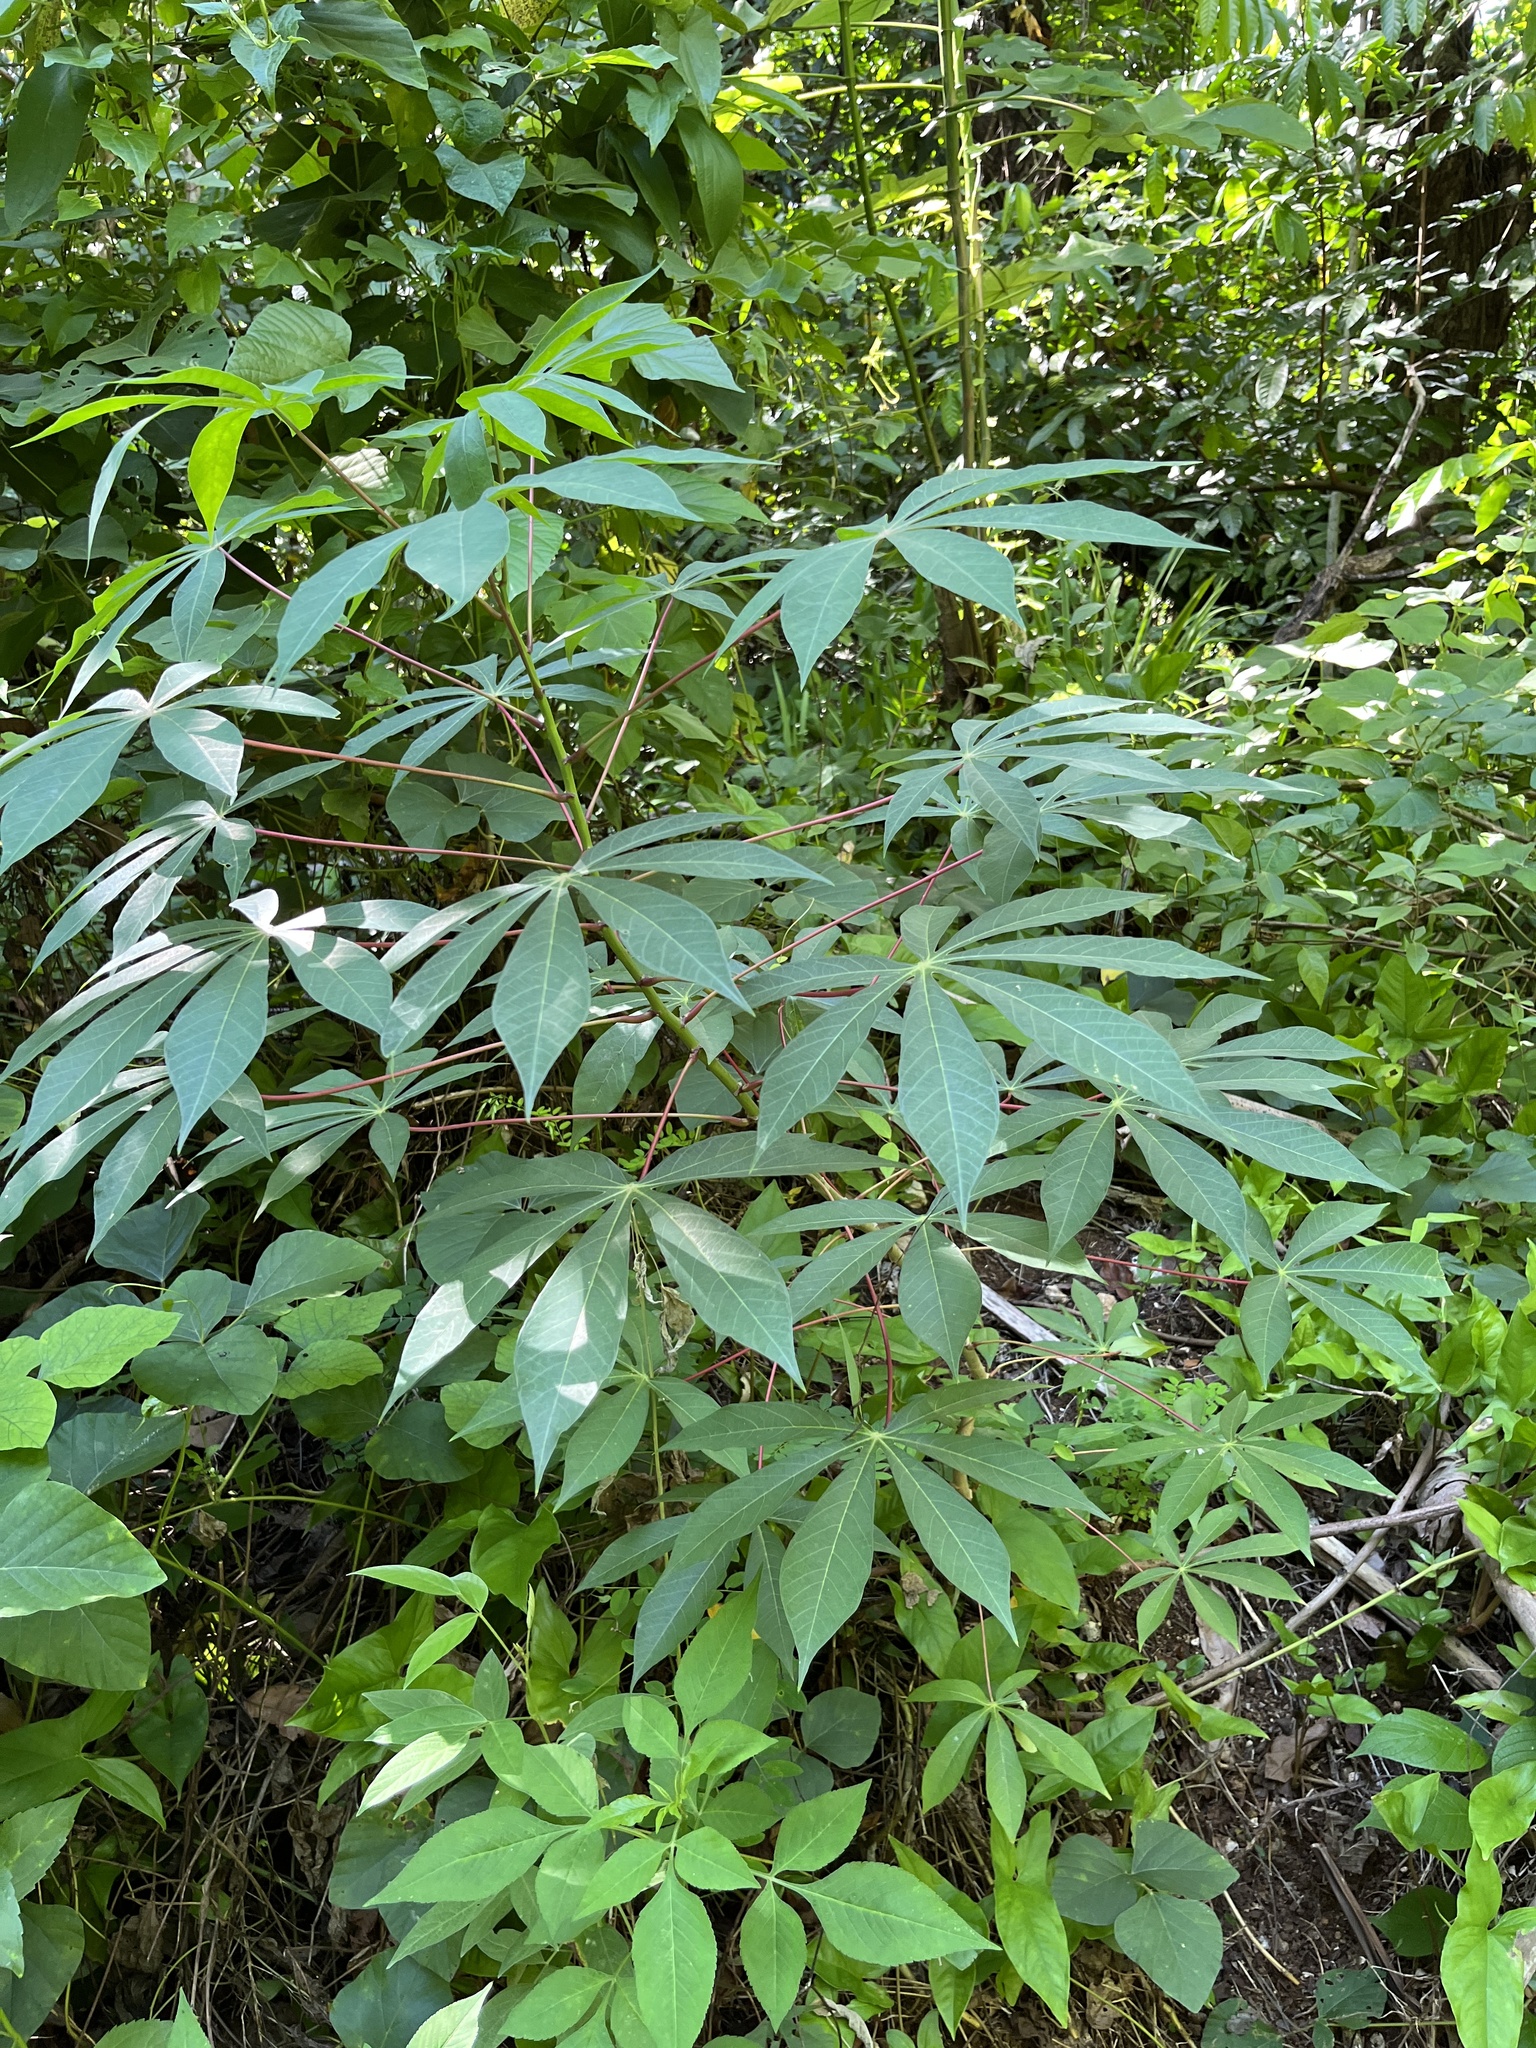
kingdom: Plantae
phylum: Tracheophyta
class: Magnoliopsida
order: Malpighiales
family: Euphorbiaceae
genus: Manihot
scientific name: Manihot esculenta
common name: Cassava
